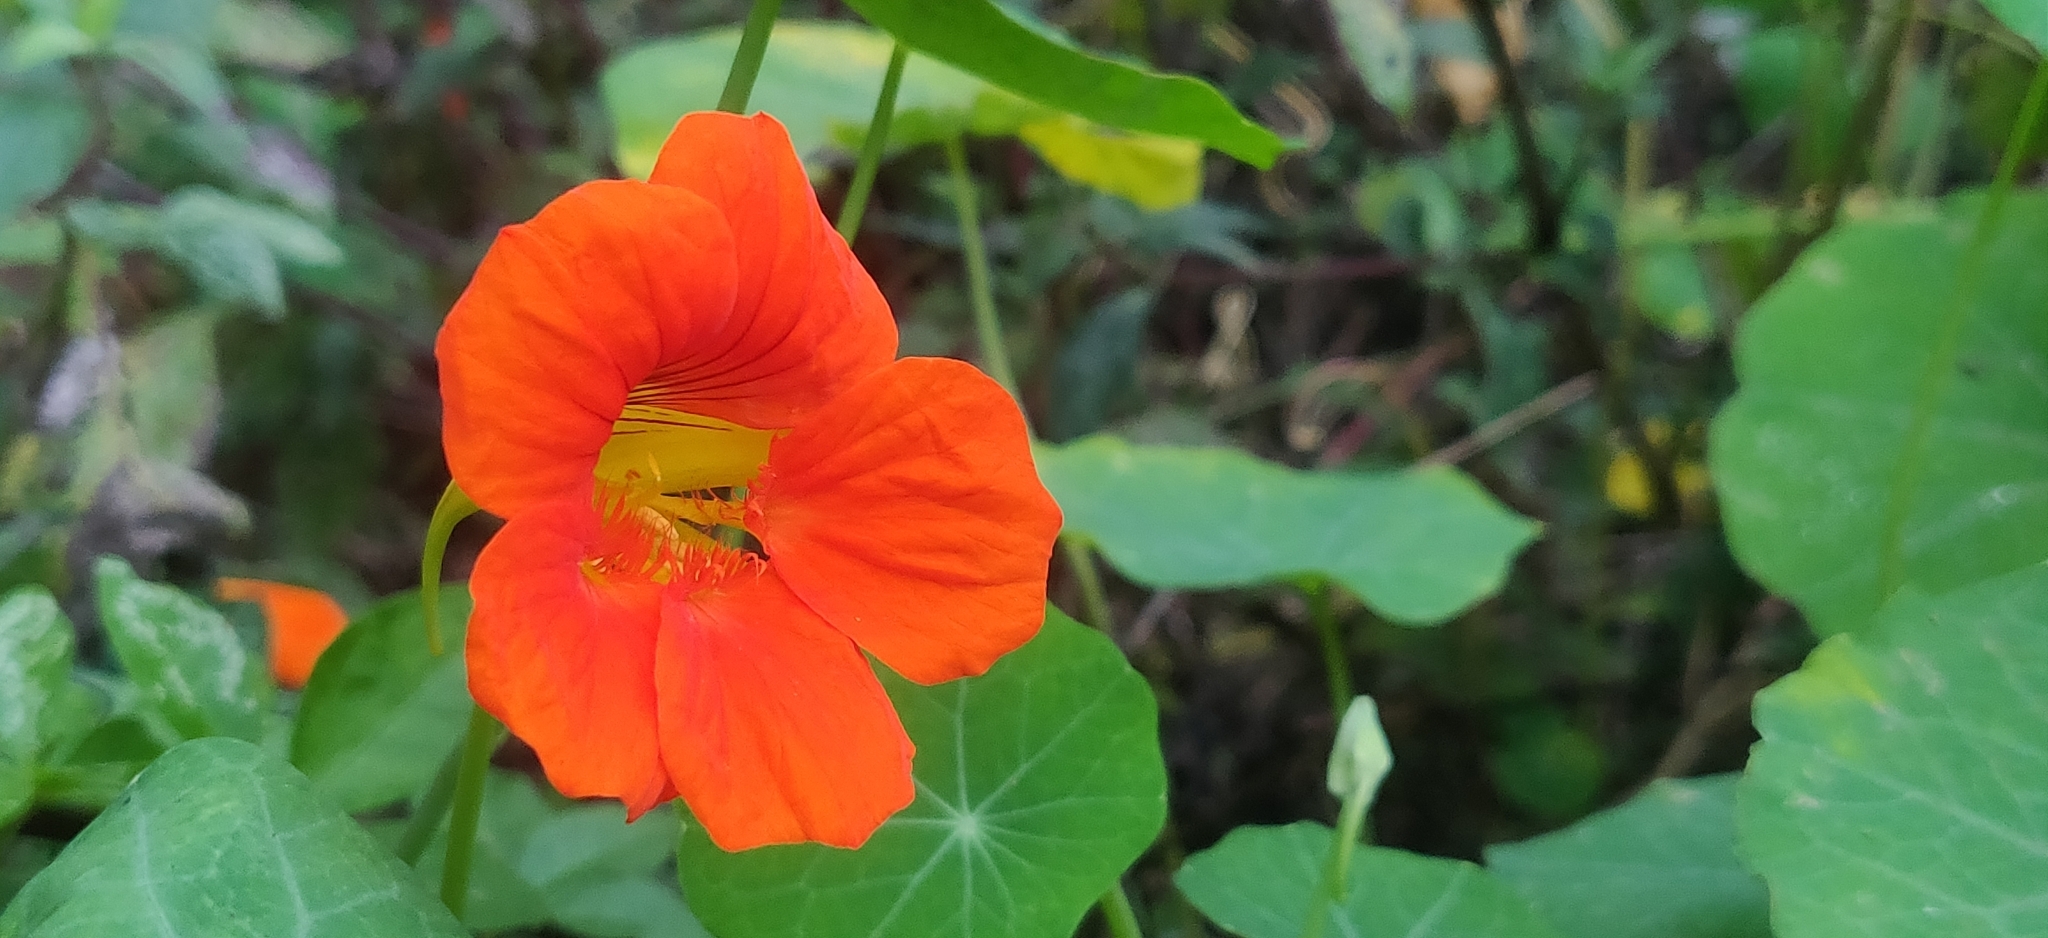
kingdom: Plantae
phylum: Tracheophyta
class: Magnoliopsida
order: Brassicales
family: Tropaeolaceae
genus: Tropaeolum
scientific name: Tropaeolum majus
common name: Nasturtium
